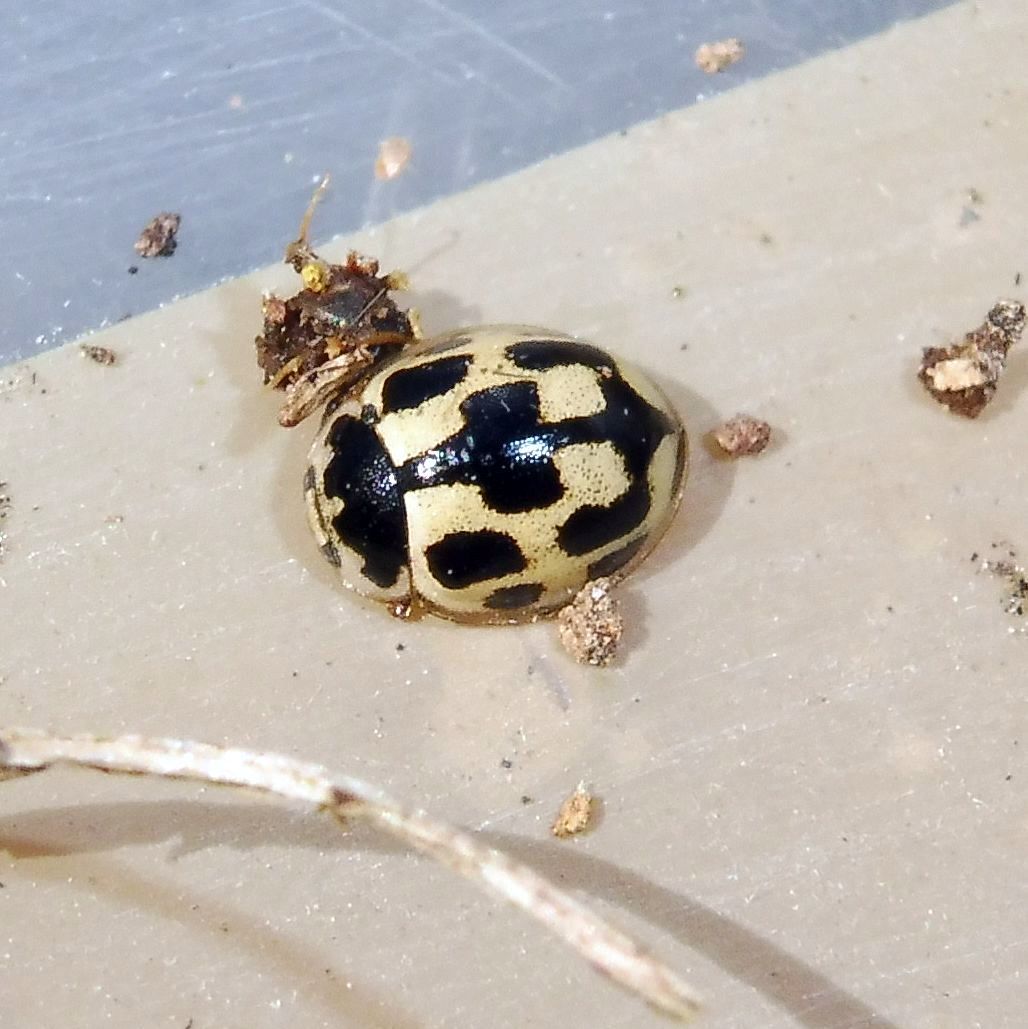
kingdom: Animalia
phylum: Arthropoda
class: Insecta
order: Coleoptera
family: Coccinellidae
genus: Propylaea
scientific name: Propylaea quatuordecimpunctata
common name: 14-spotted ladybird beetle
